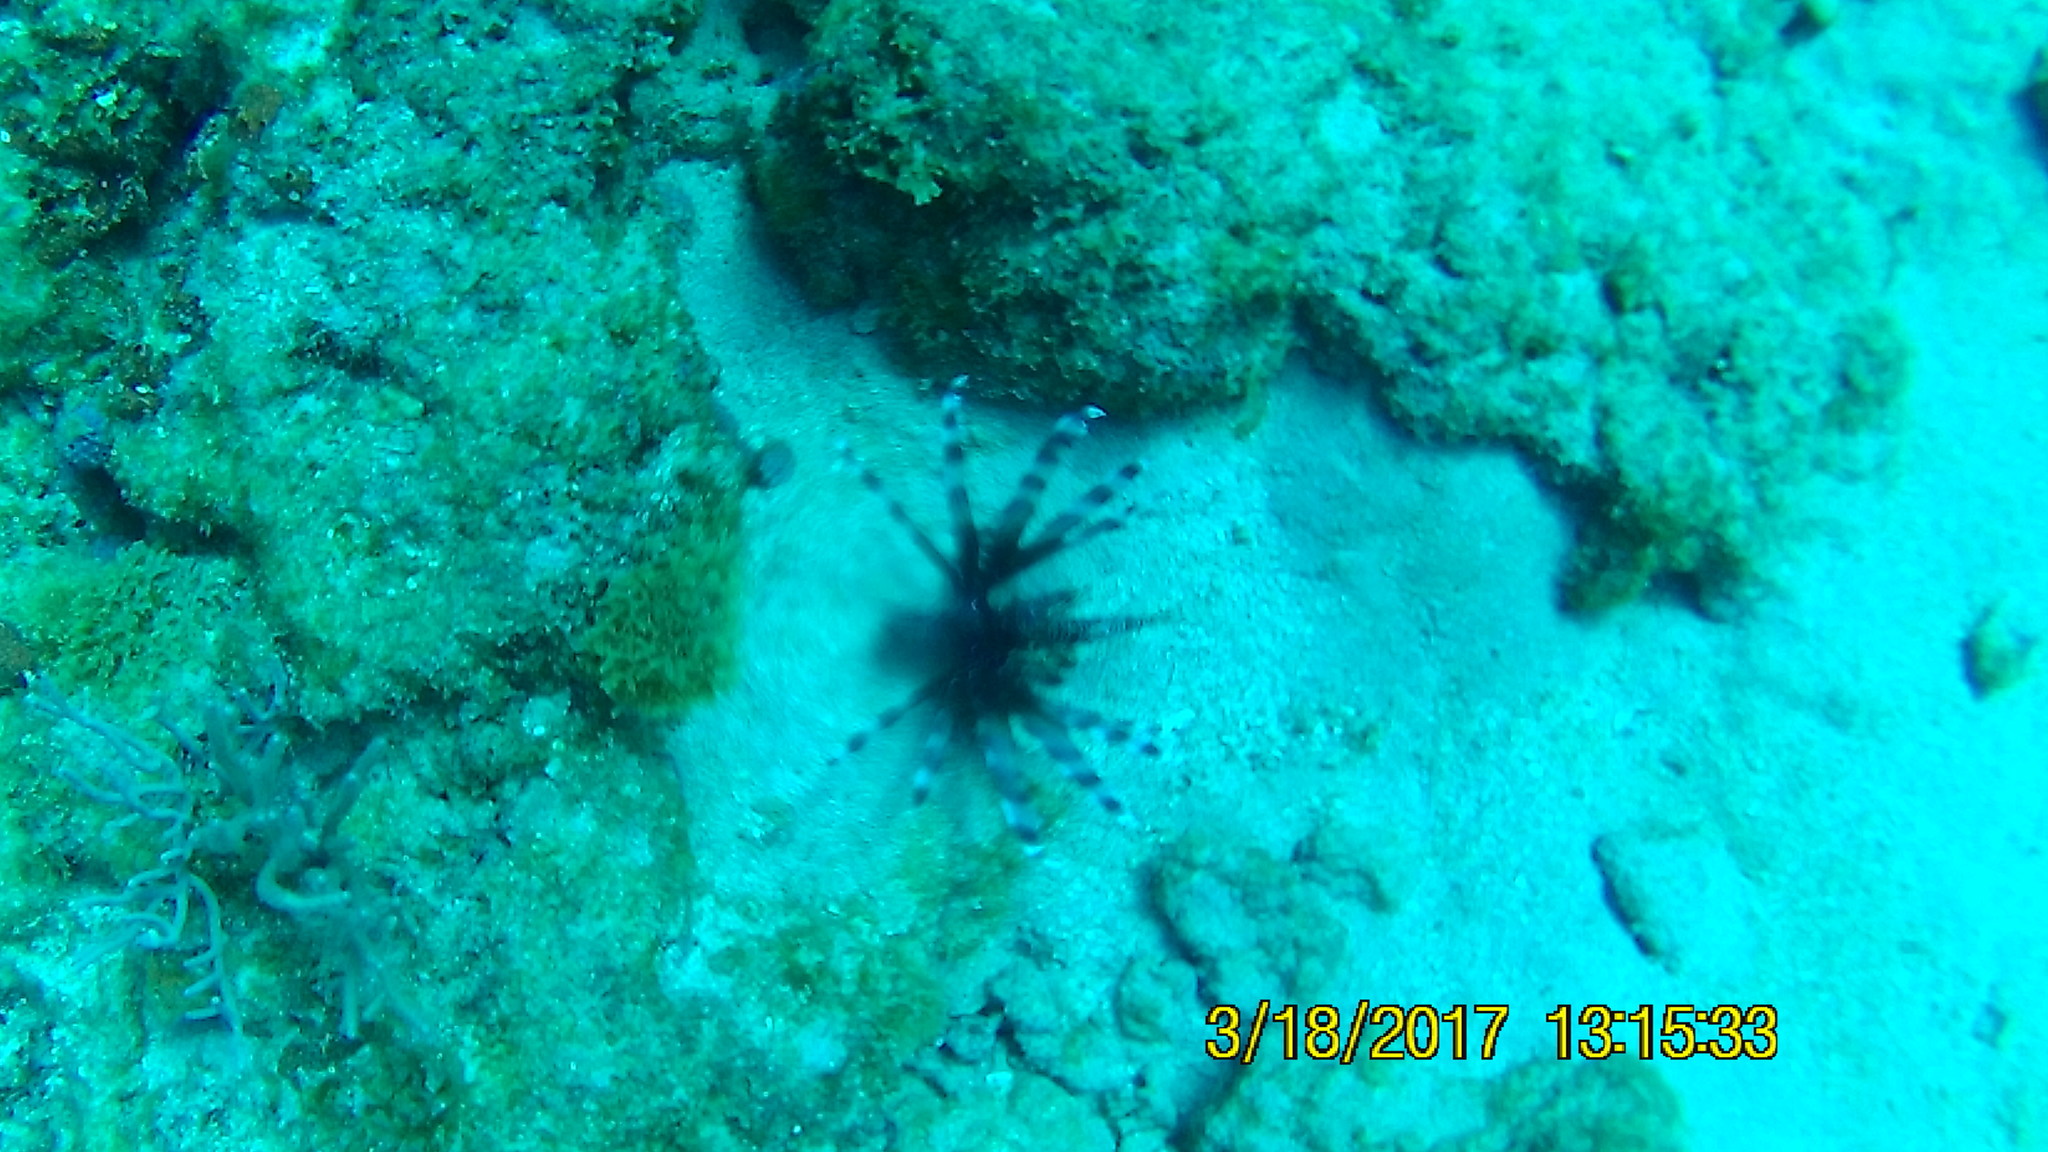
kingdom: Animalia
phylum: Chordata
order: Scorpaeniformes
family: Scorpaenidae
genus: Pterois
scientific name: Pterois volitans
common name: Lionfish
